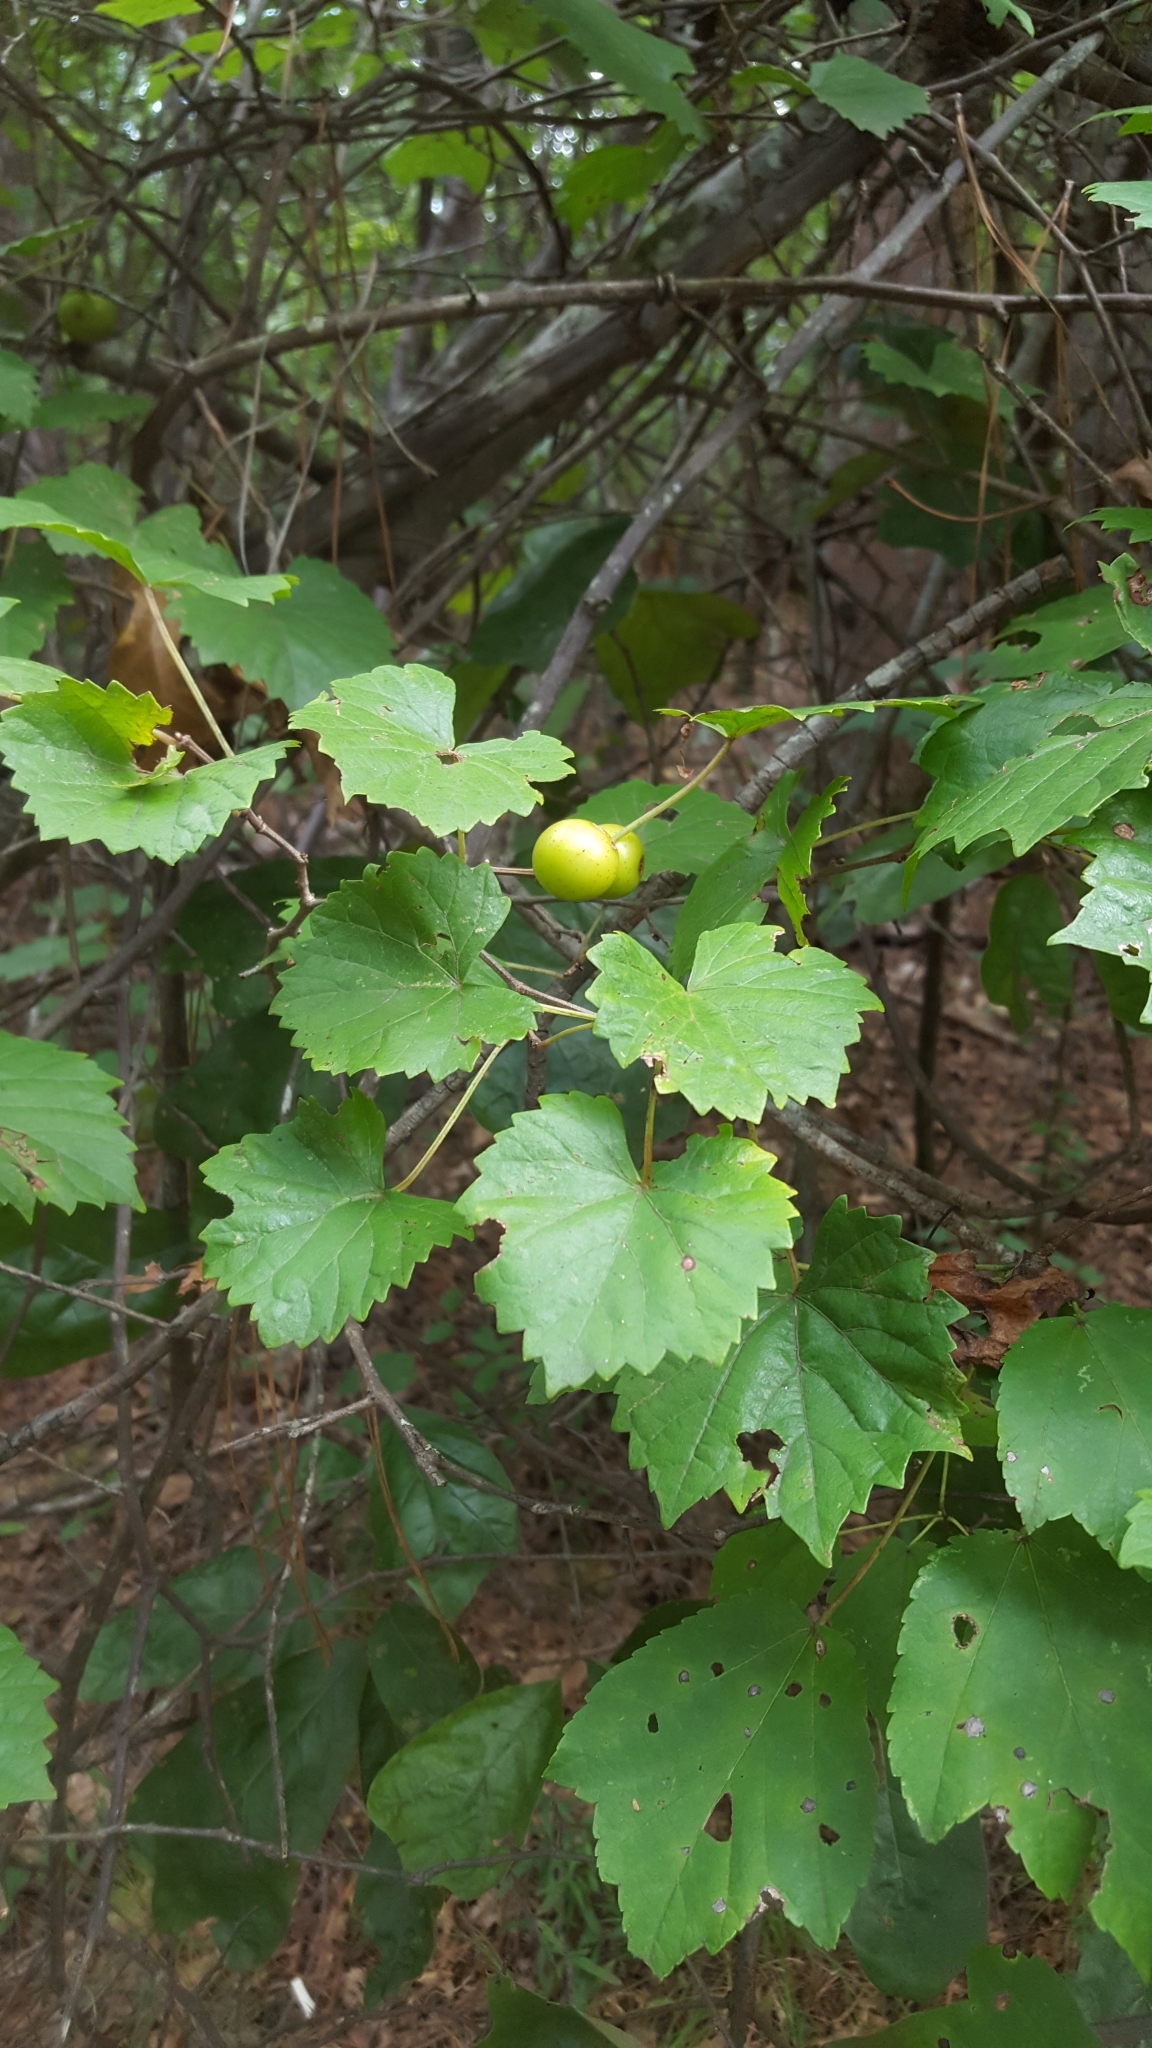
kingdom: Plantae
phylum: Tracheophyta
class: Magnoliopsida
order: Vitales
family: Vitaceae
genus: Vitis
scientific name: Vitis rotundifolia
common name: Muscadine grape
